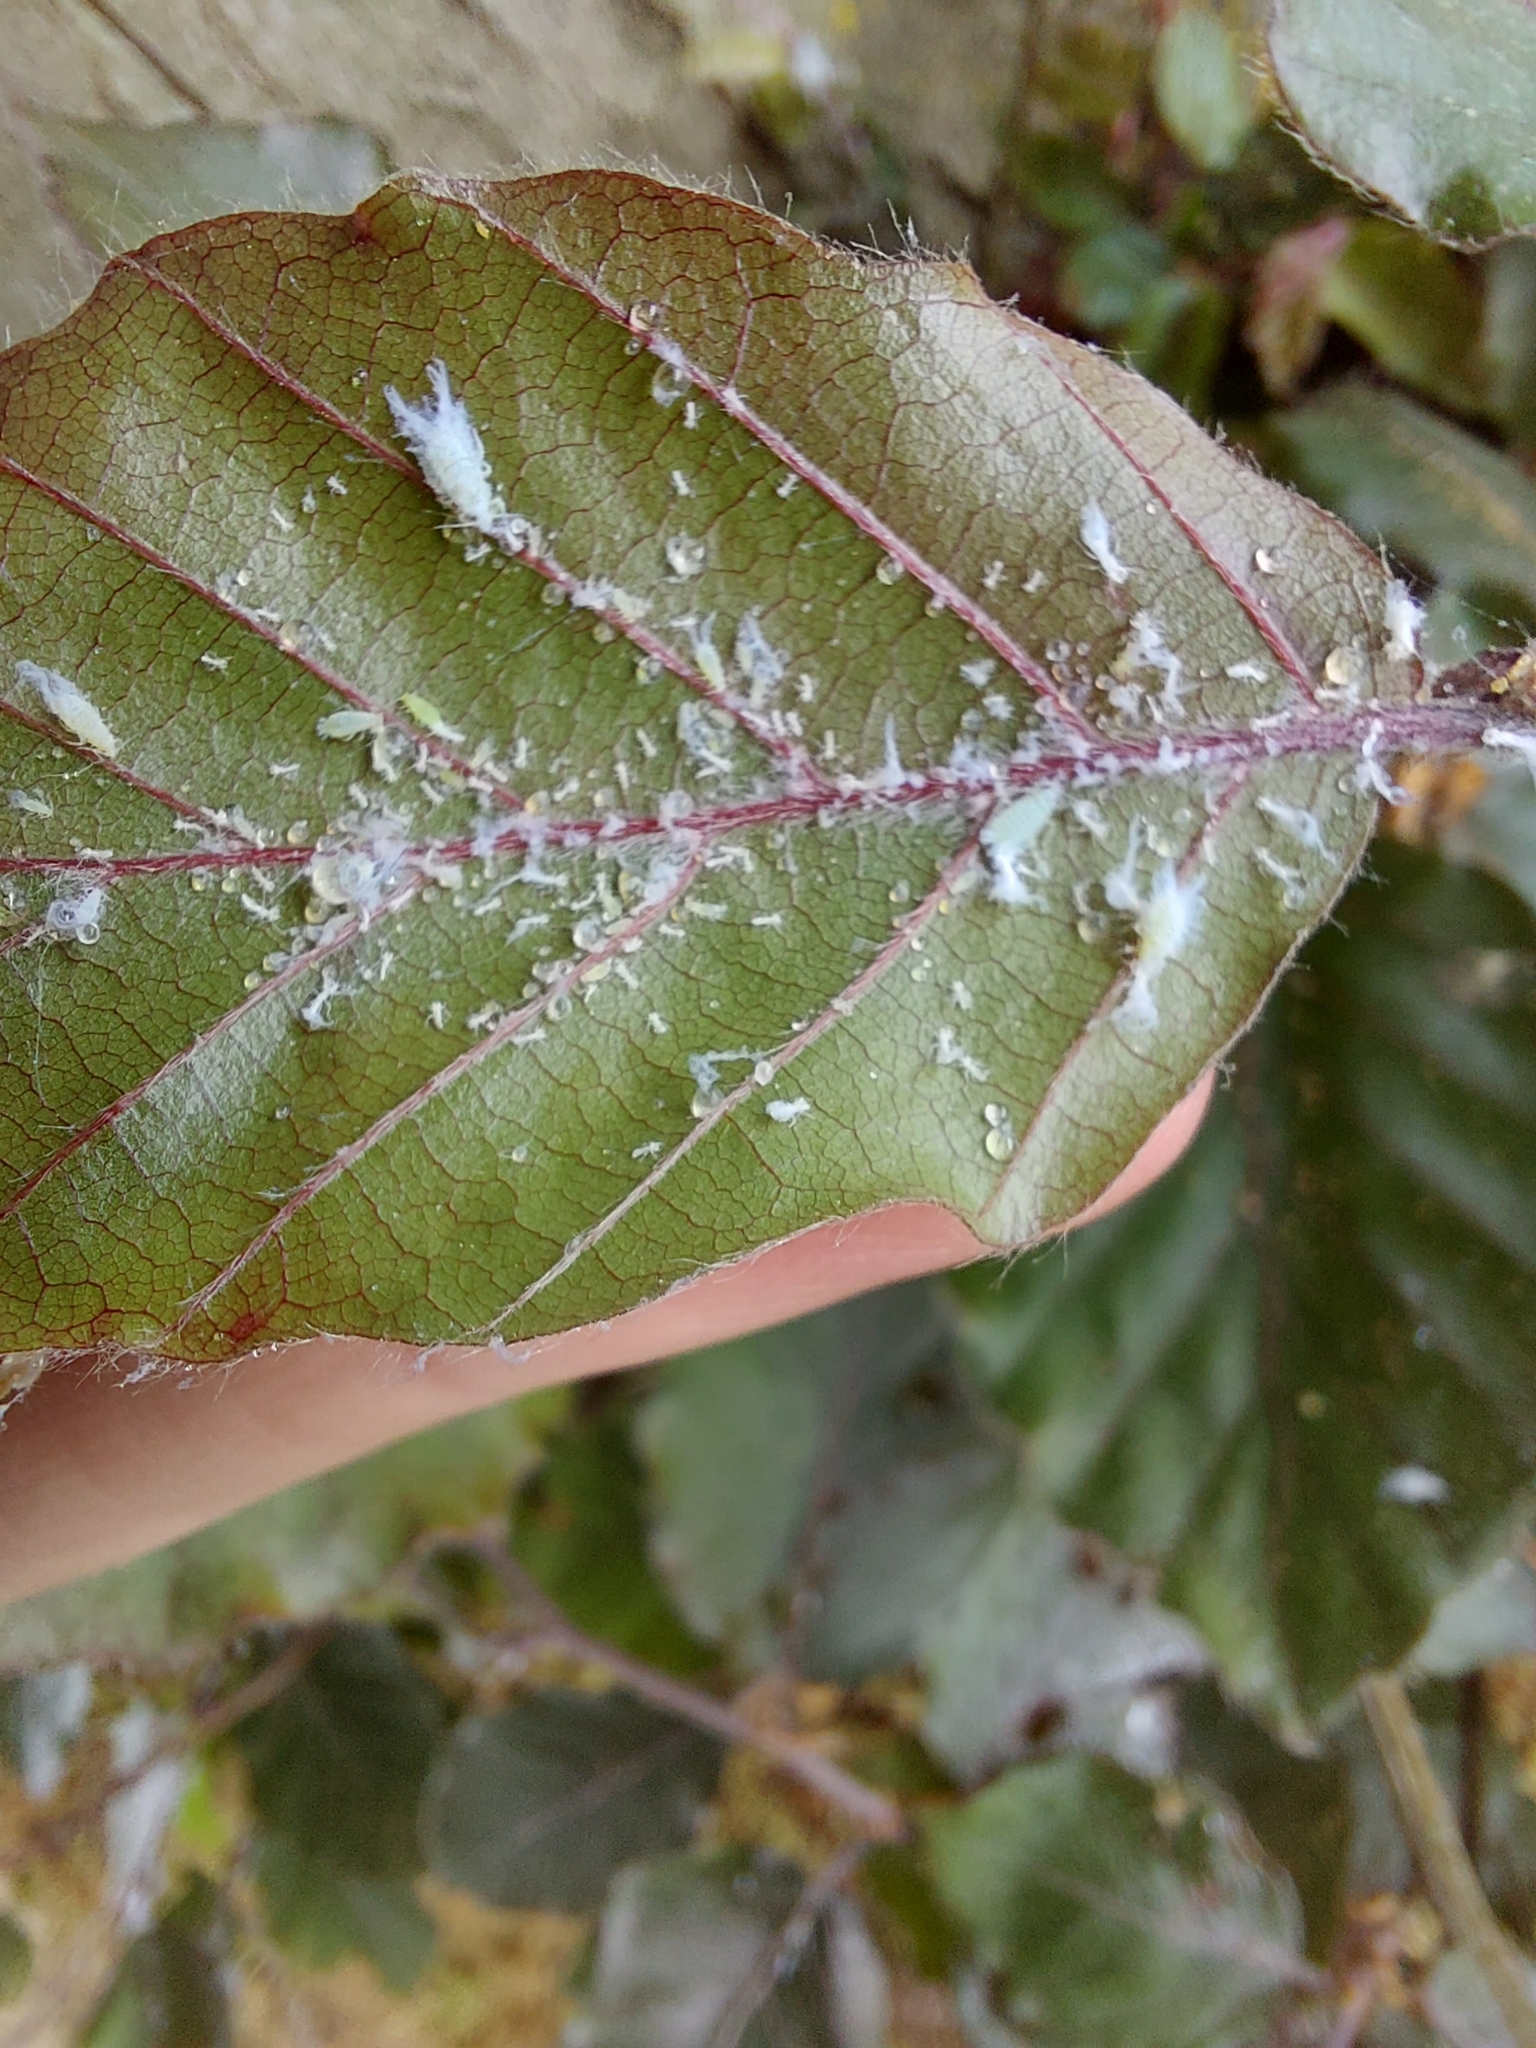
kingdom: Animalia
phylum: Arthropoda
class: Insecta
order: Hemiptera
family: Aphididae
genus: Phyllaphis
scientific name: Phyllaphis fagi
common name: Beech aphid
